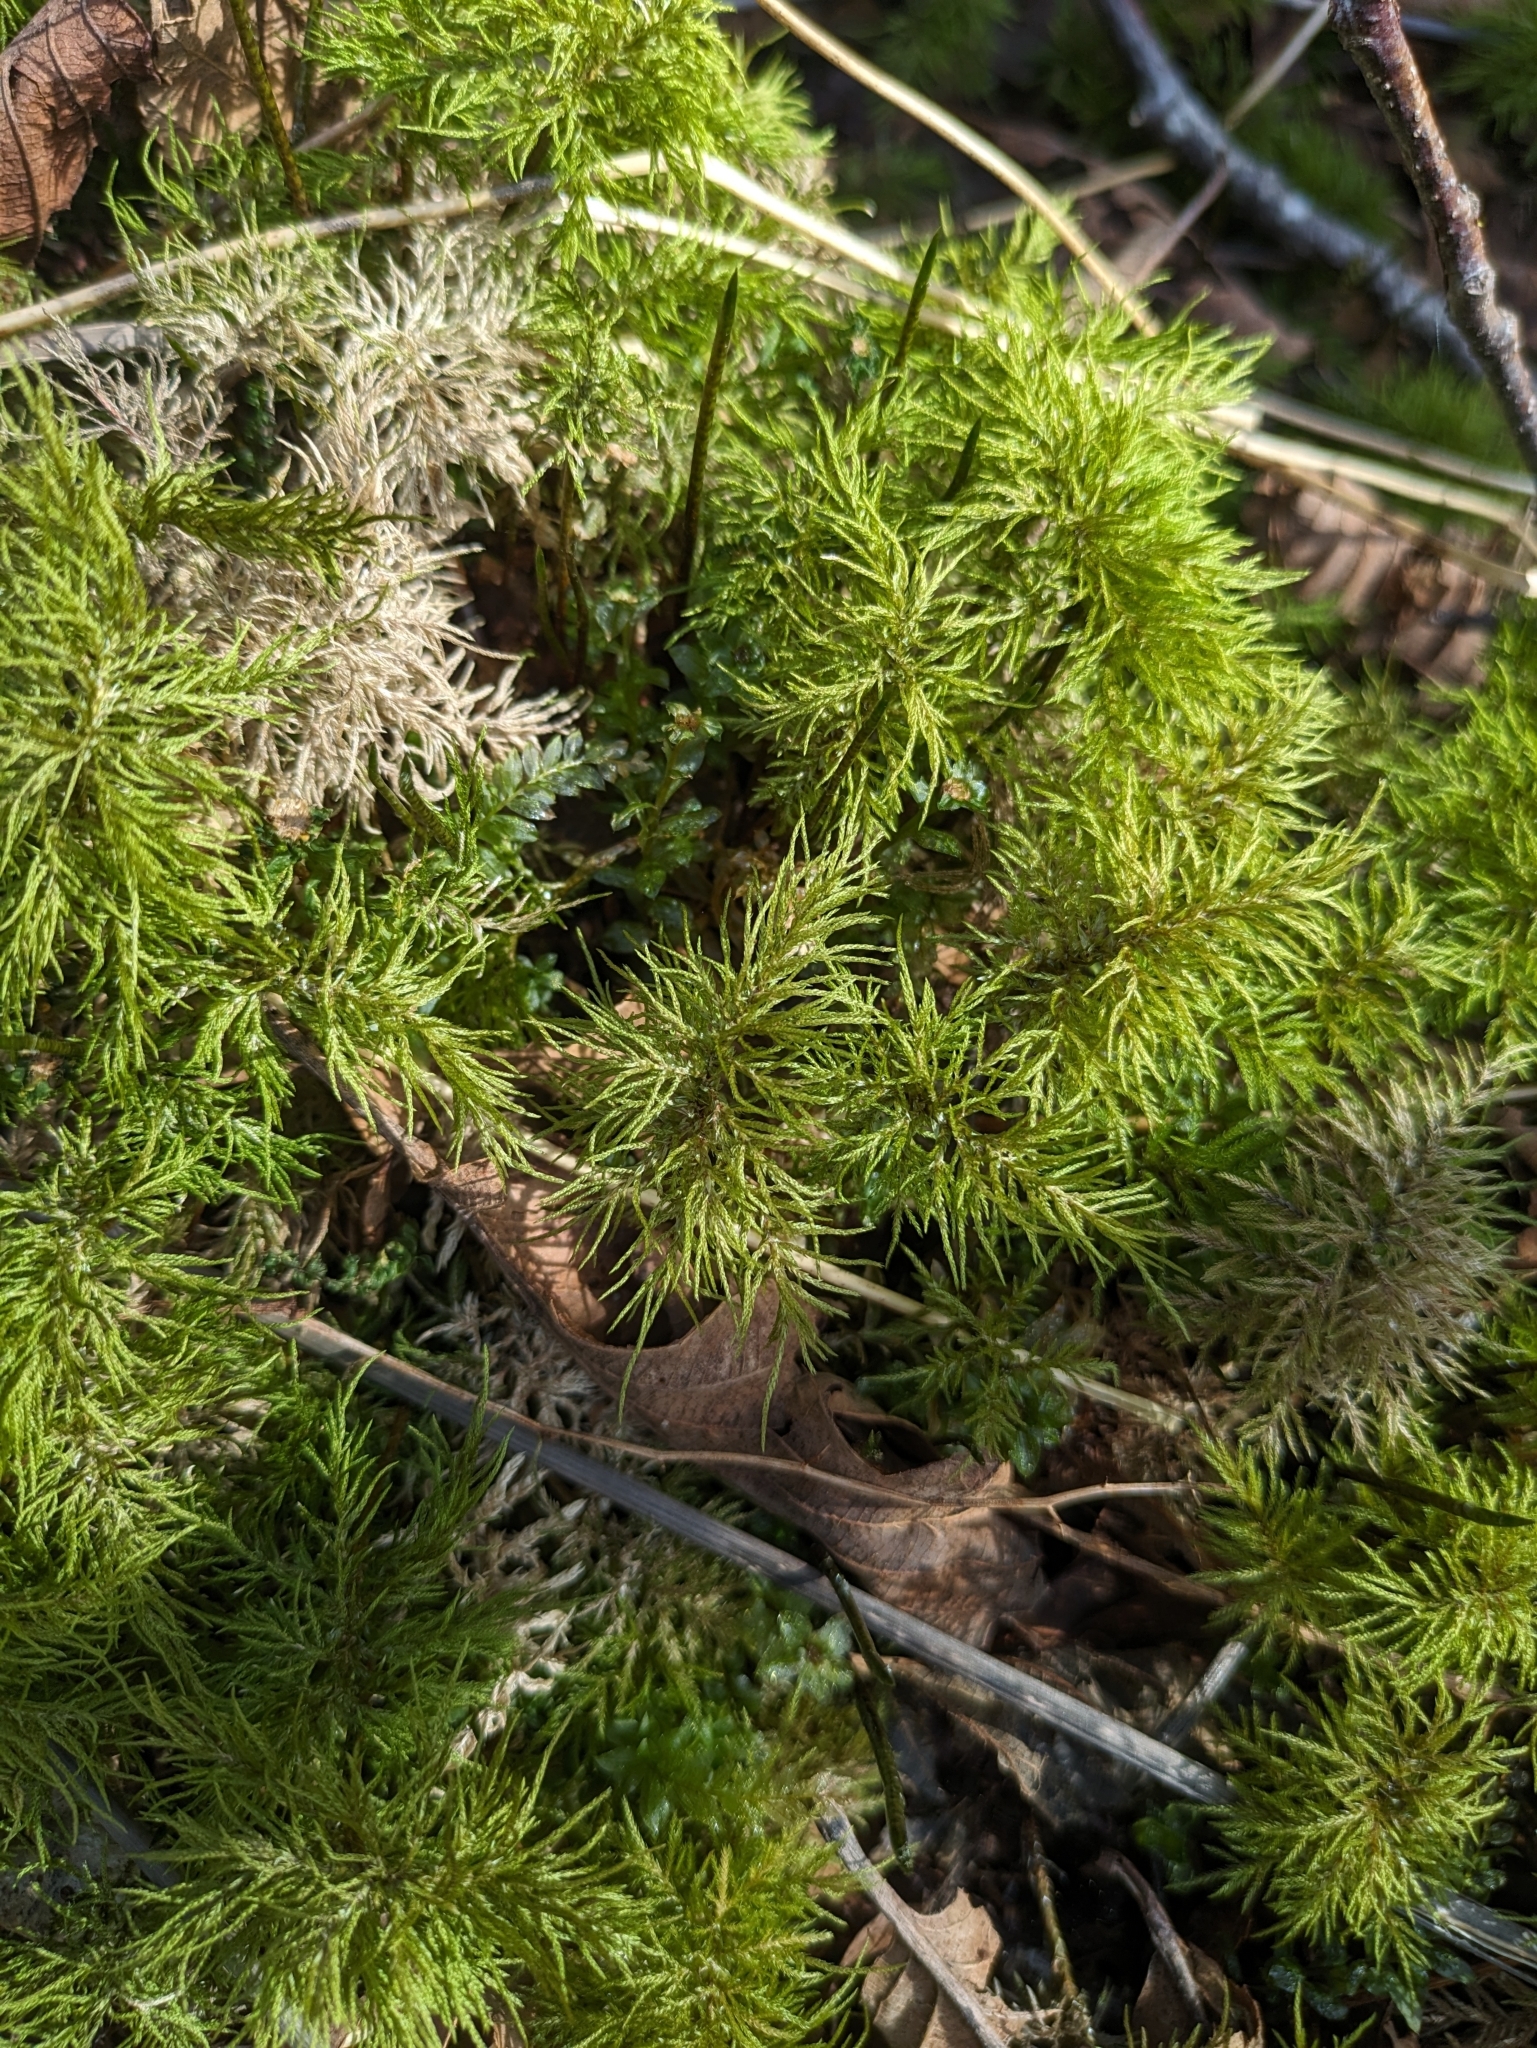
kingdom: Plantae
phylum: Bryophyta
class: Bryopsida
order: Hypnales
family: Climaciaceae
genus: Pleuroziopsis
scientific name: Pleuroziopsis ruthenica
